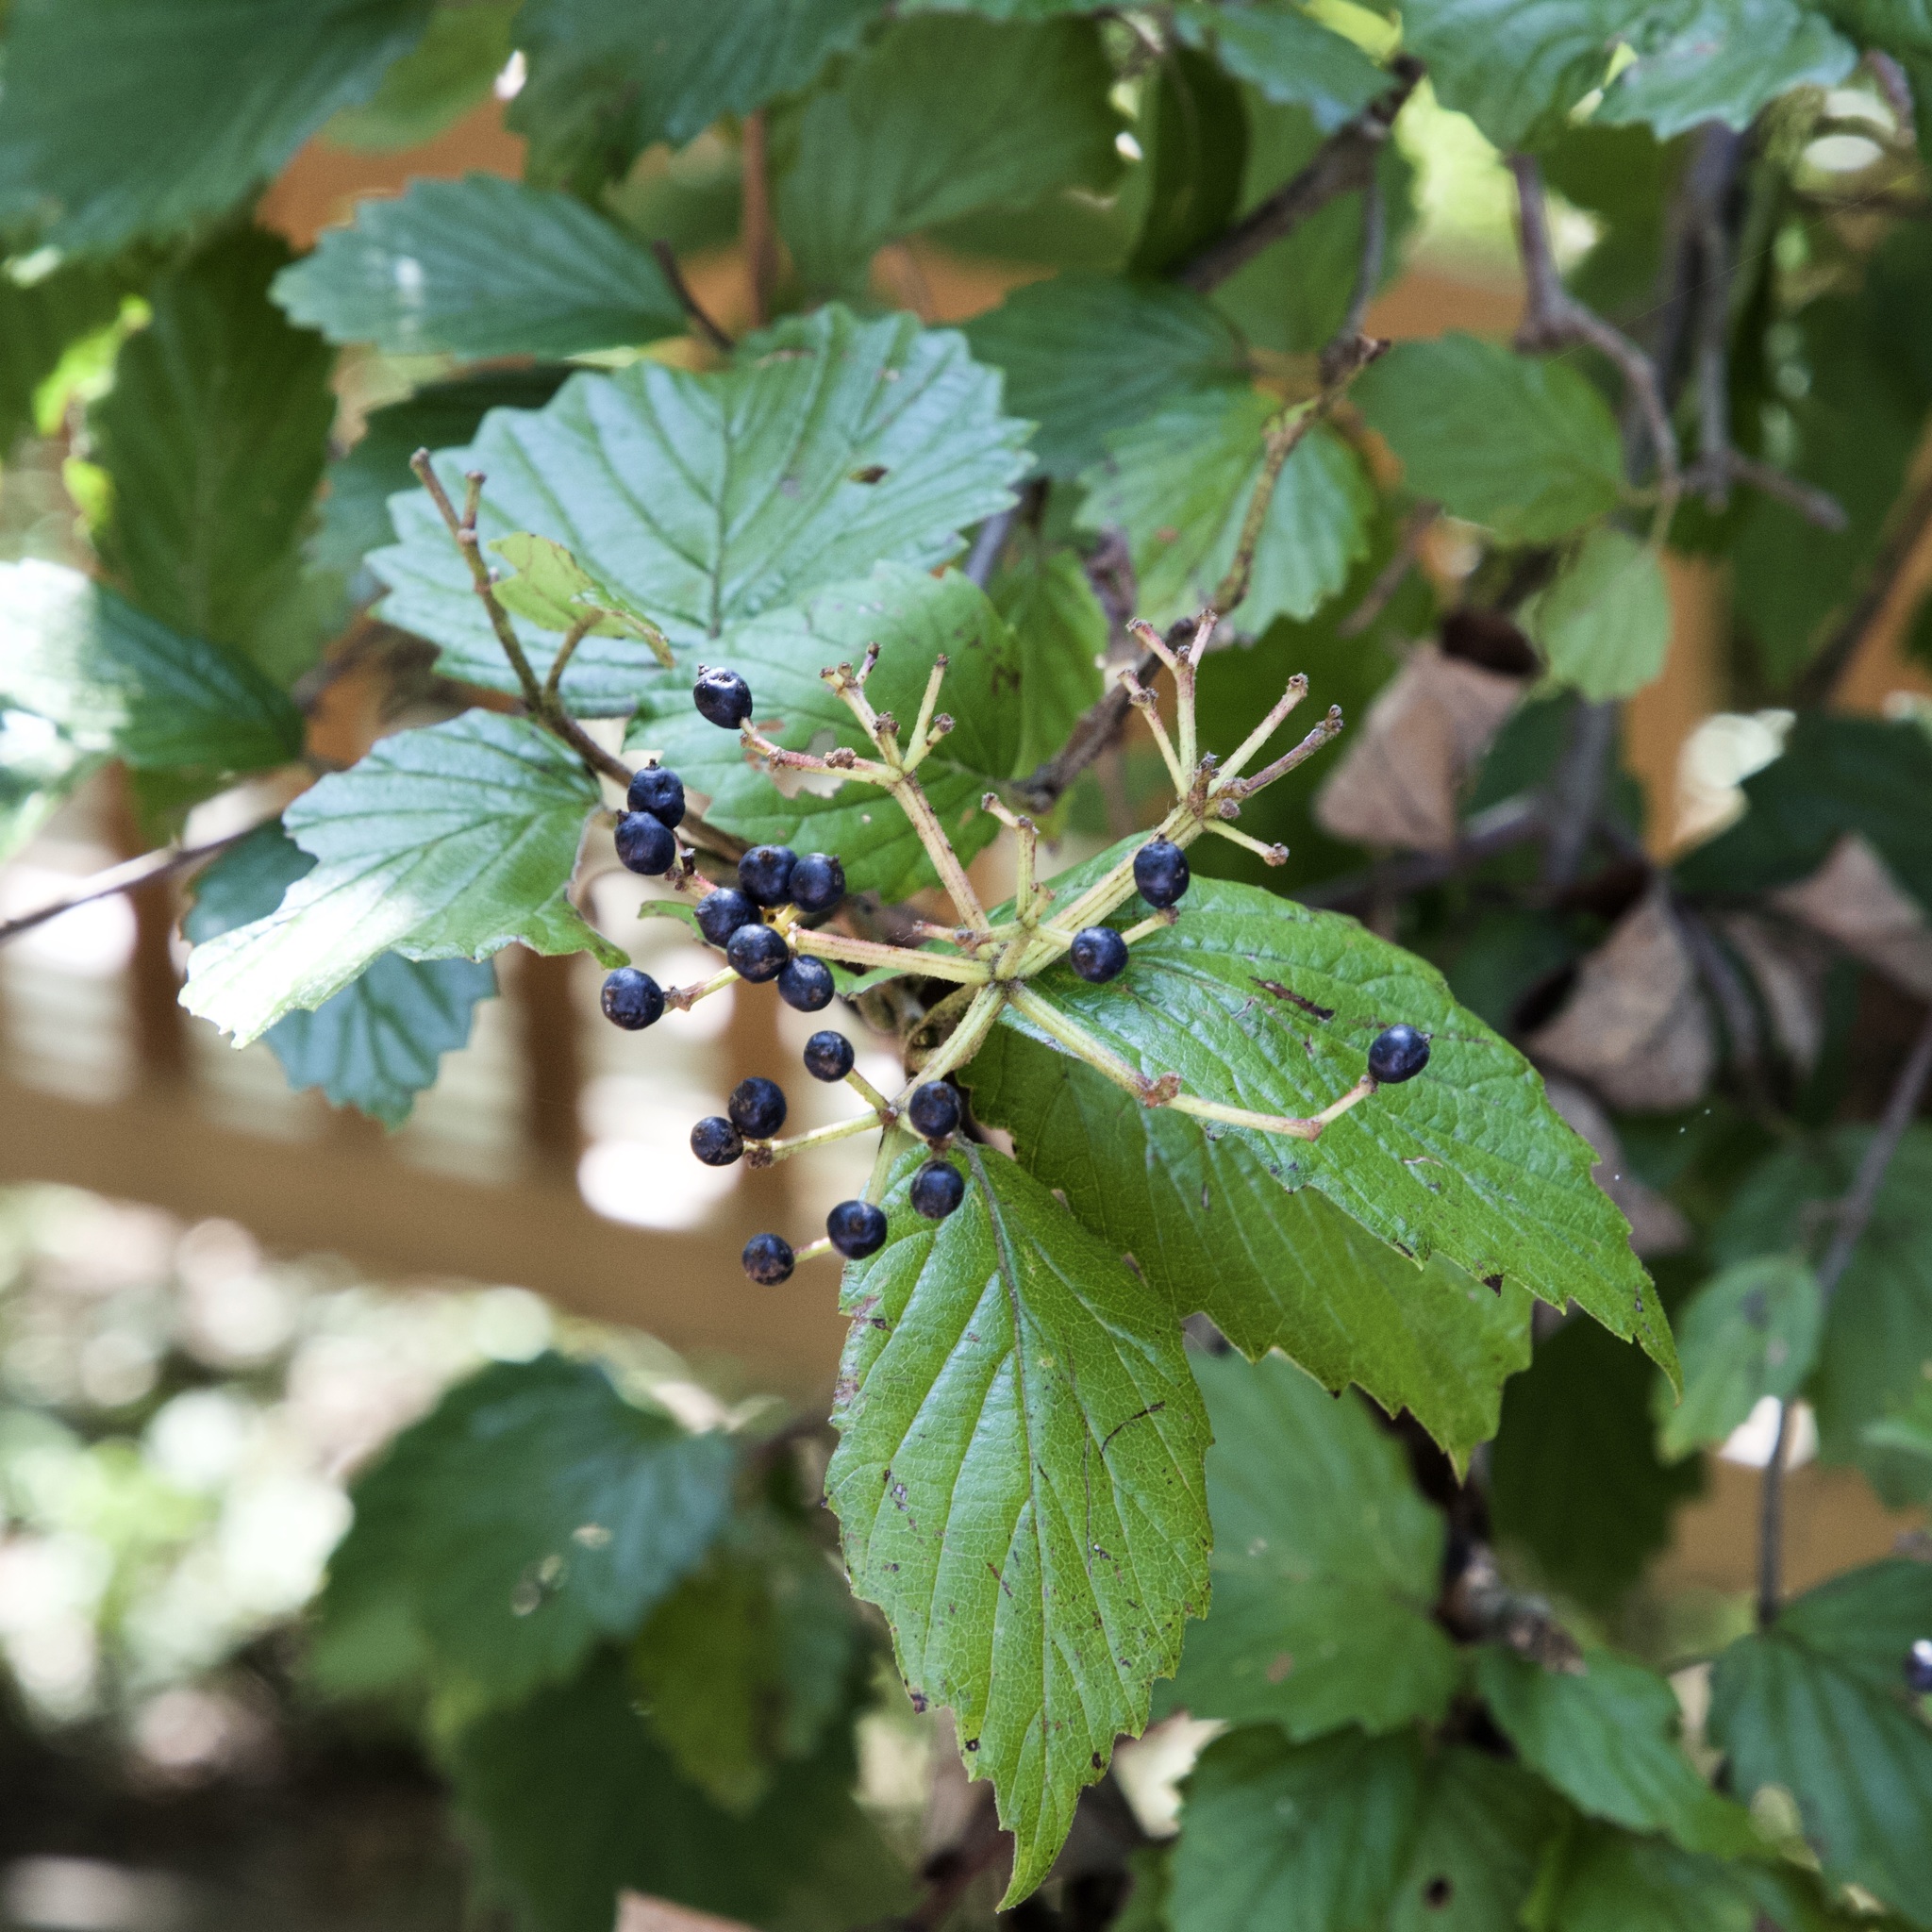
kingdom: Plantae
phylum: Tracheophyta
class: Magnoliopsida
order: Dipsacales
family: Viburnaceae
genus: Viburnum
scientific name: Viburnum dentatum
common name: Arrow-wood
